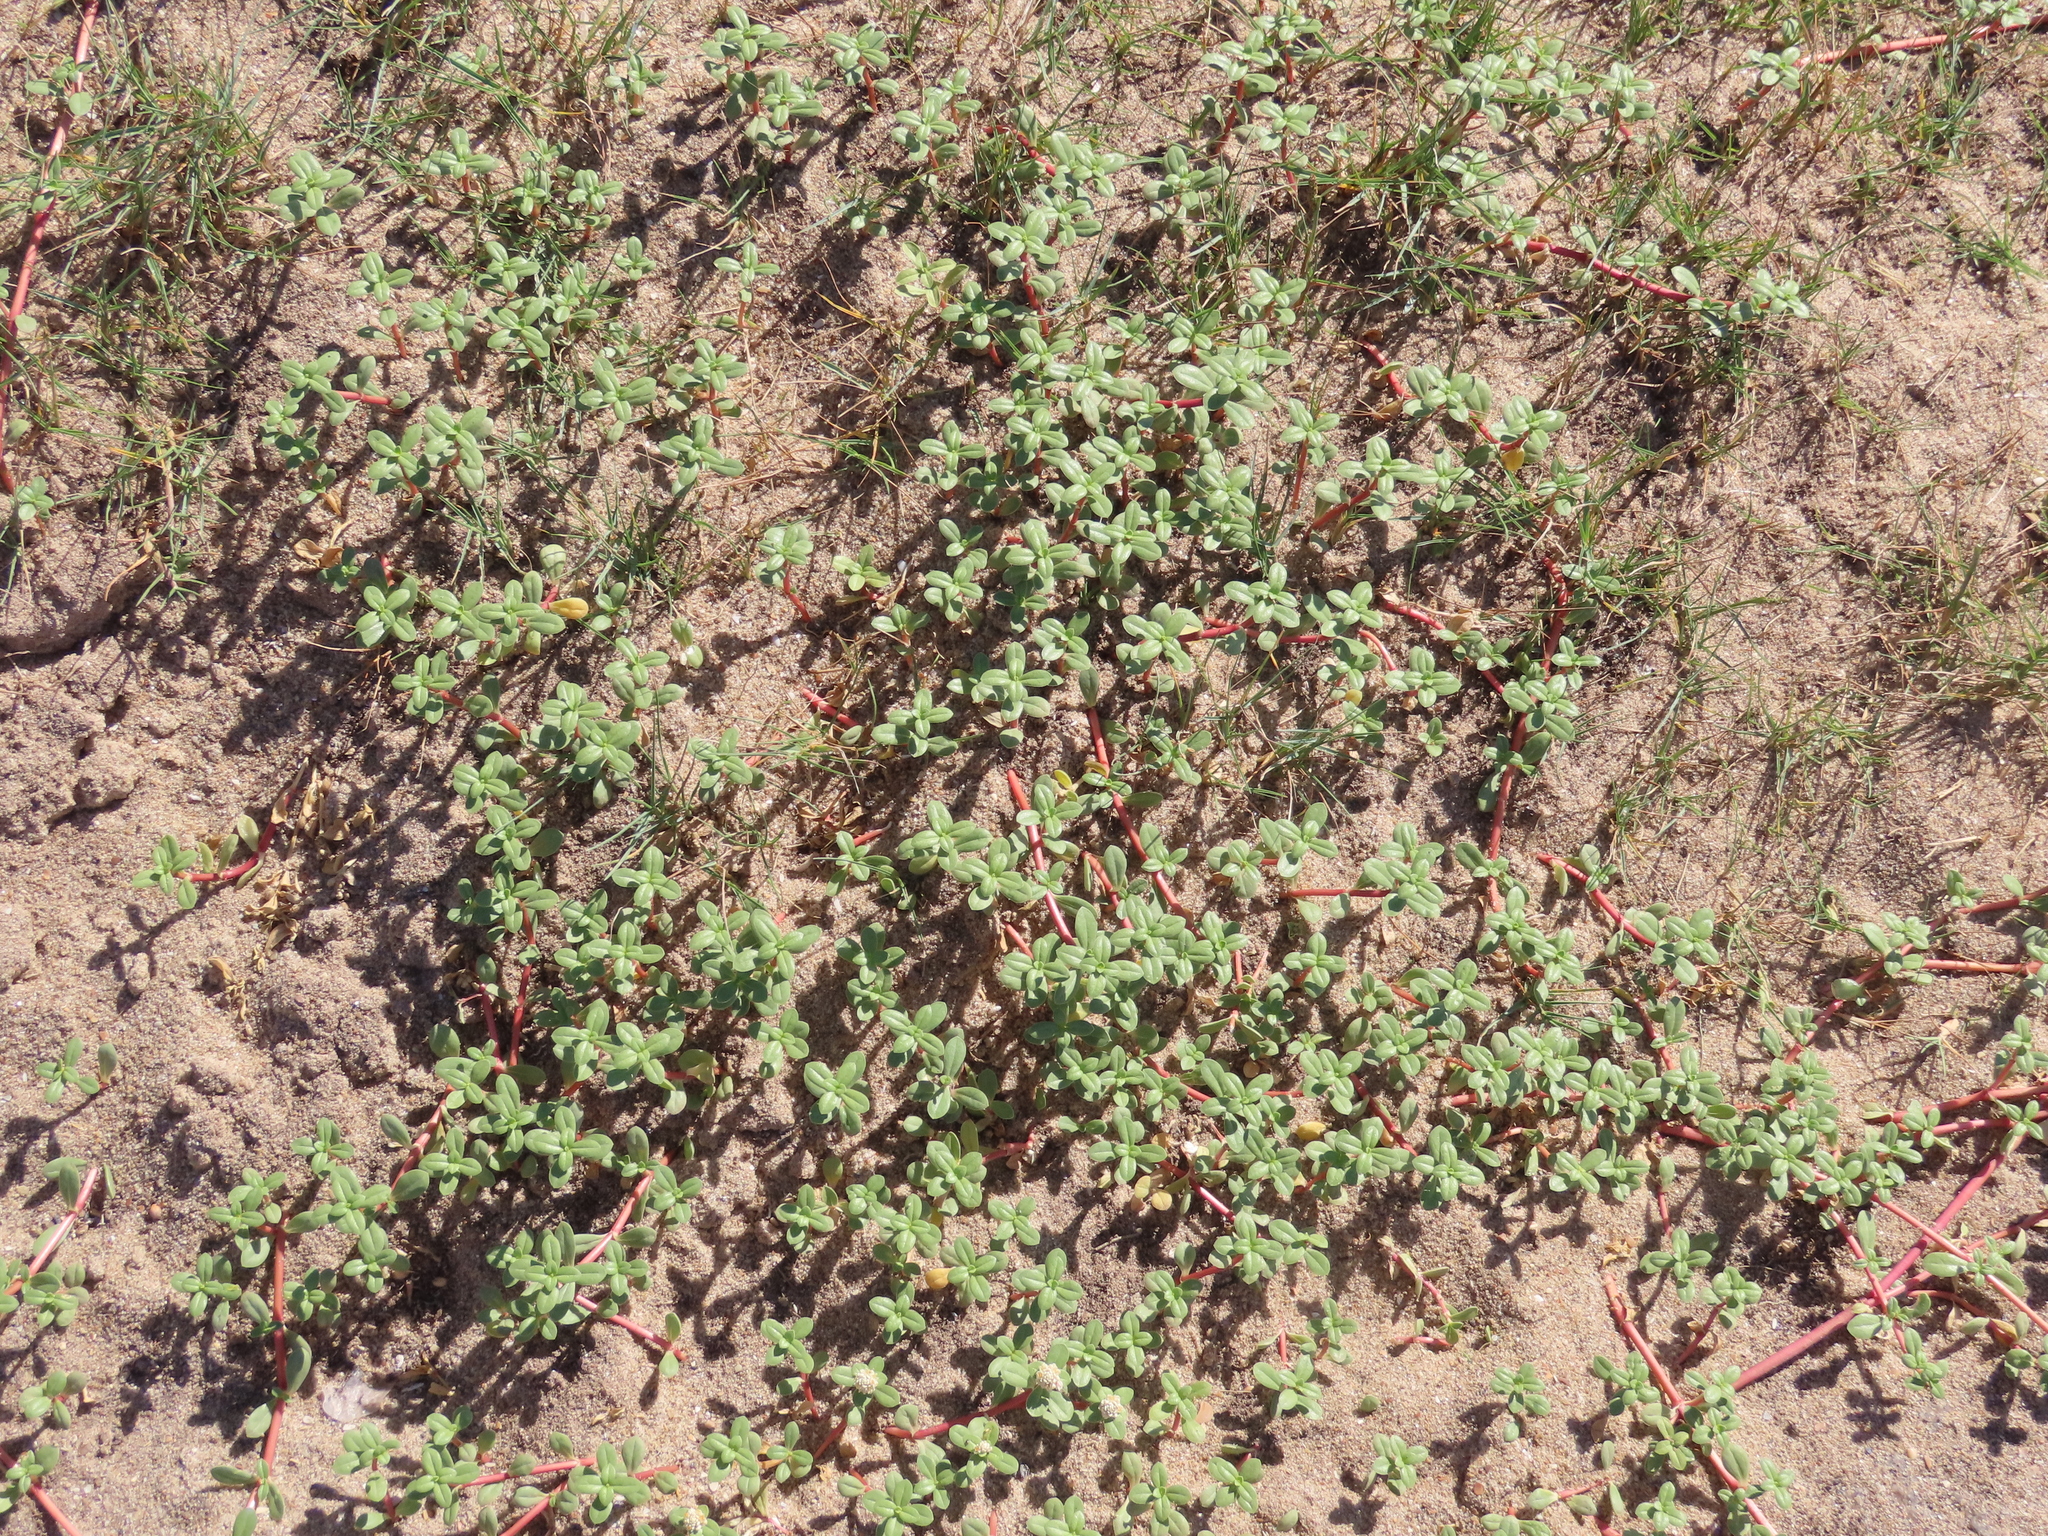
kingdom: Plantae
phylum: Tracheophyta
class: Magnoliopsida
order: Caryophyllales
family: Amaranthaceae
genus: Gomphrena
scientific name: Gomphrena portulacoides
